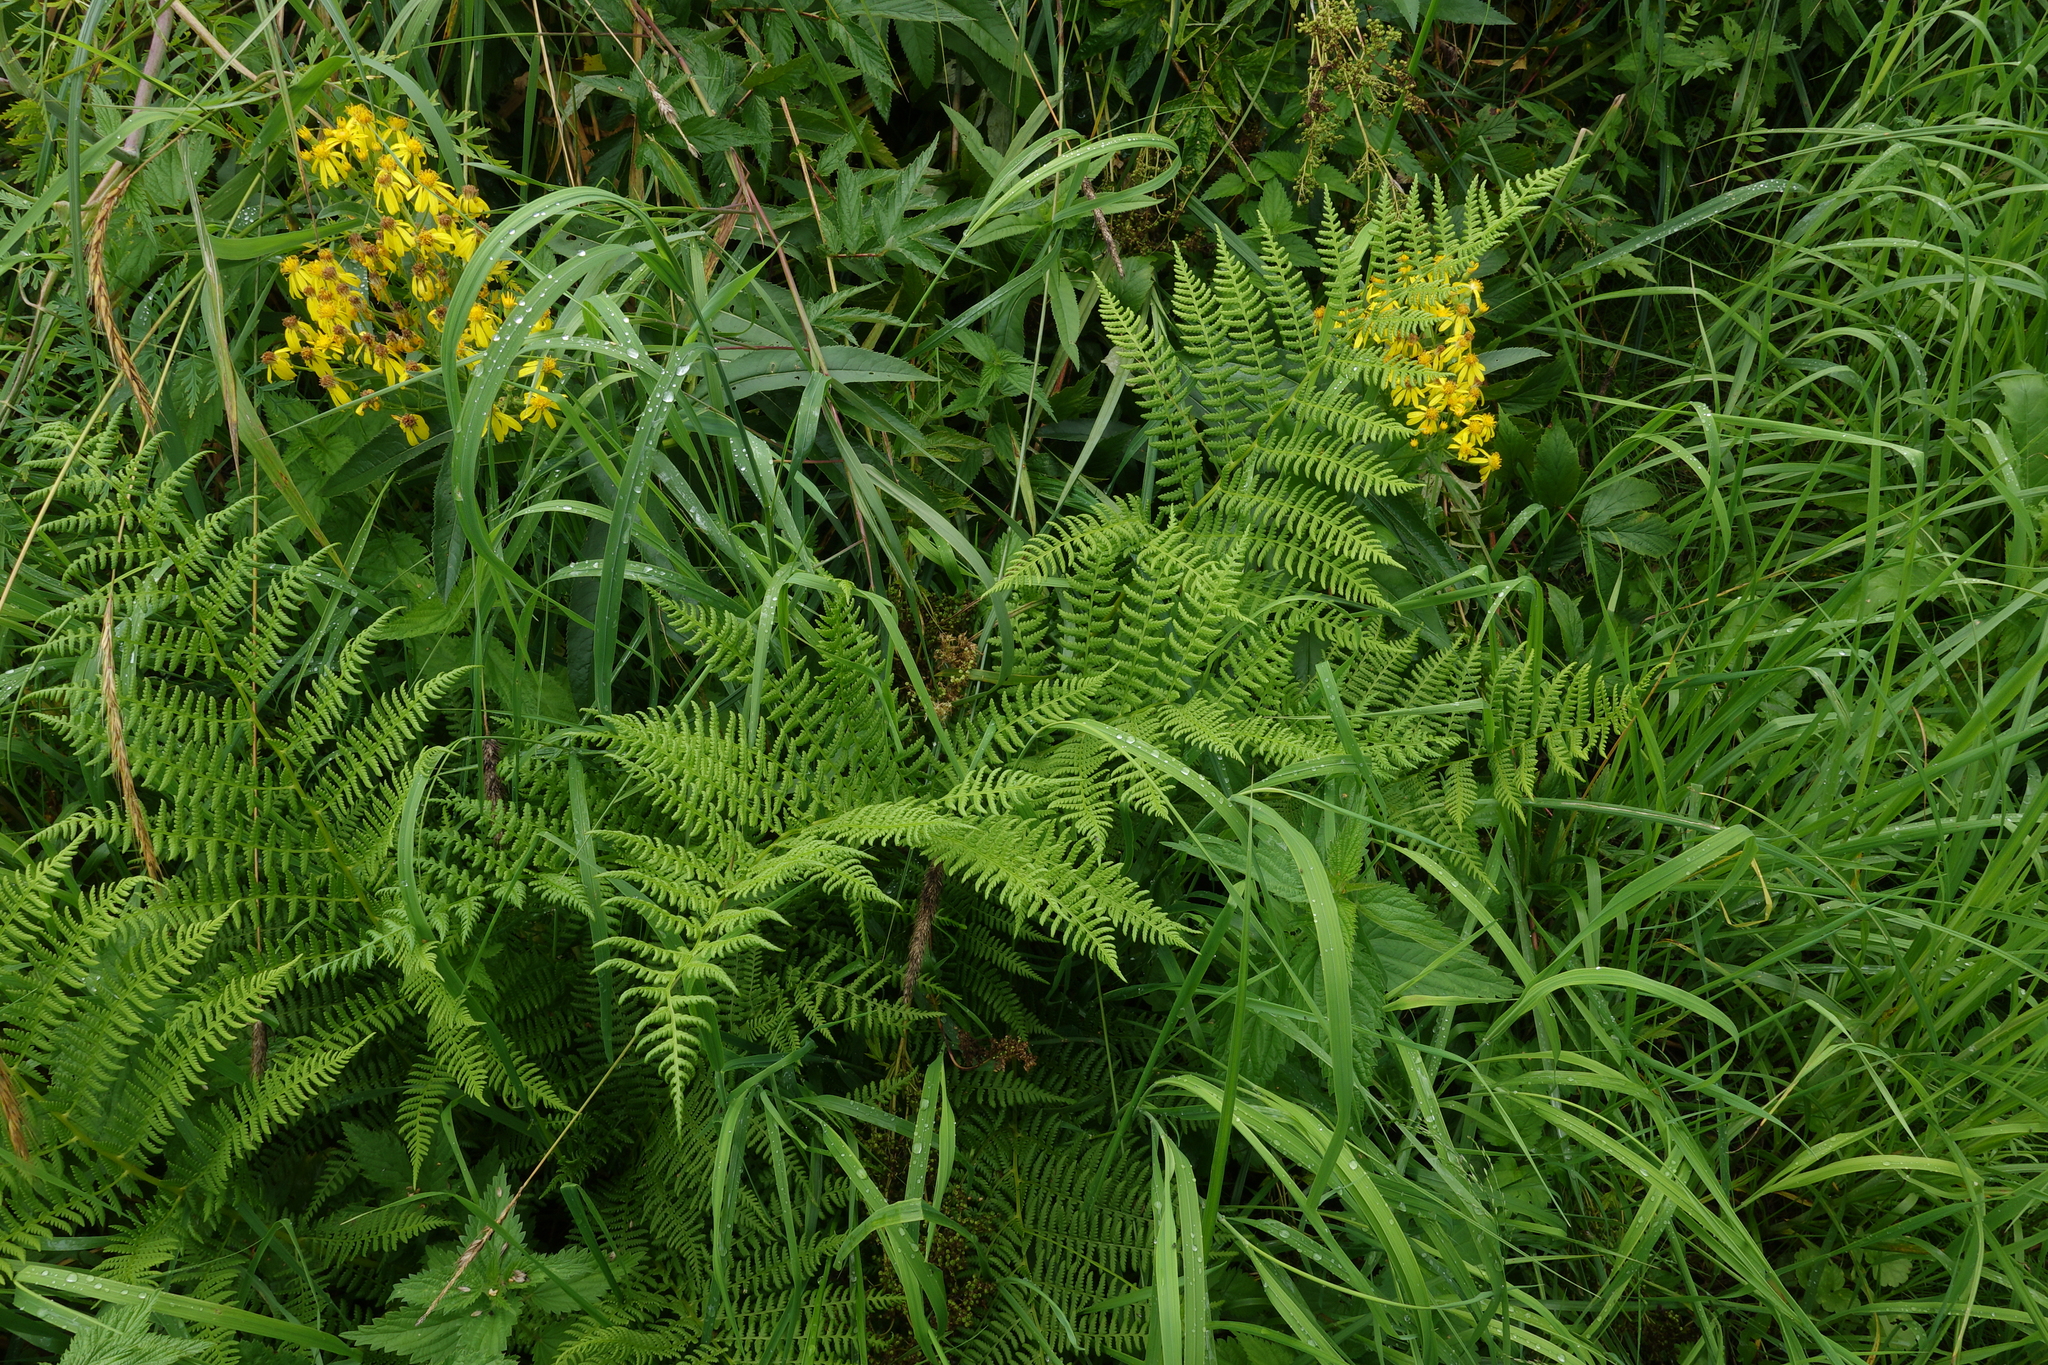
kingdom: Plantae
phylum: Tracheophyta
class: Polypodiopsida
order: Polypodiales
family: Athyriaceae
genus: Athyrium
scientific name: Athyrium filix-femina
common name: Lady fern
